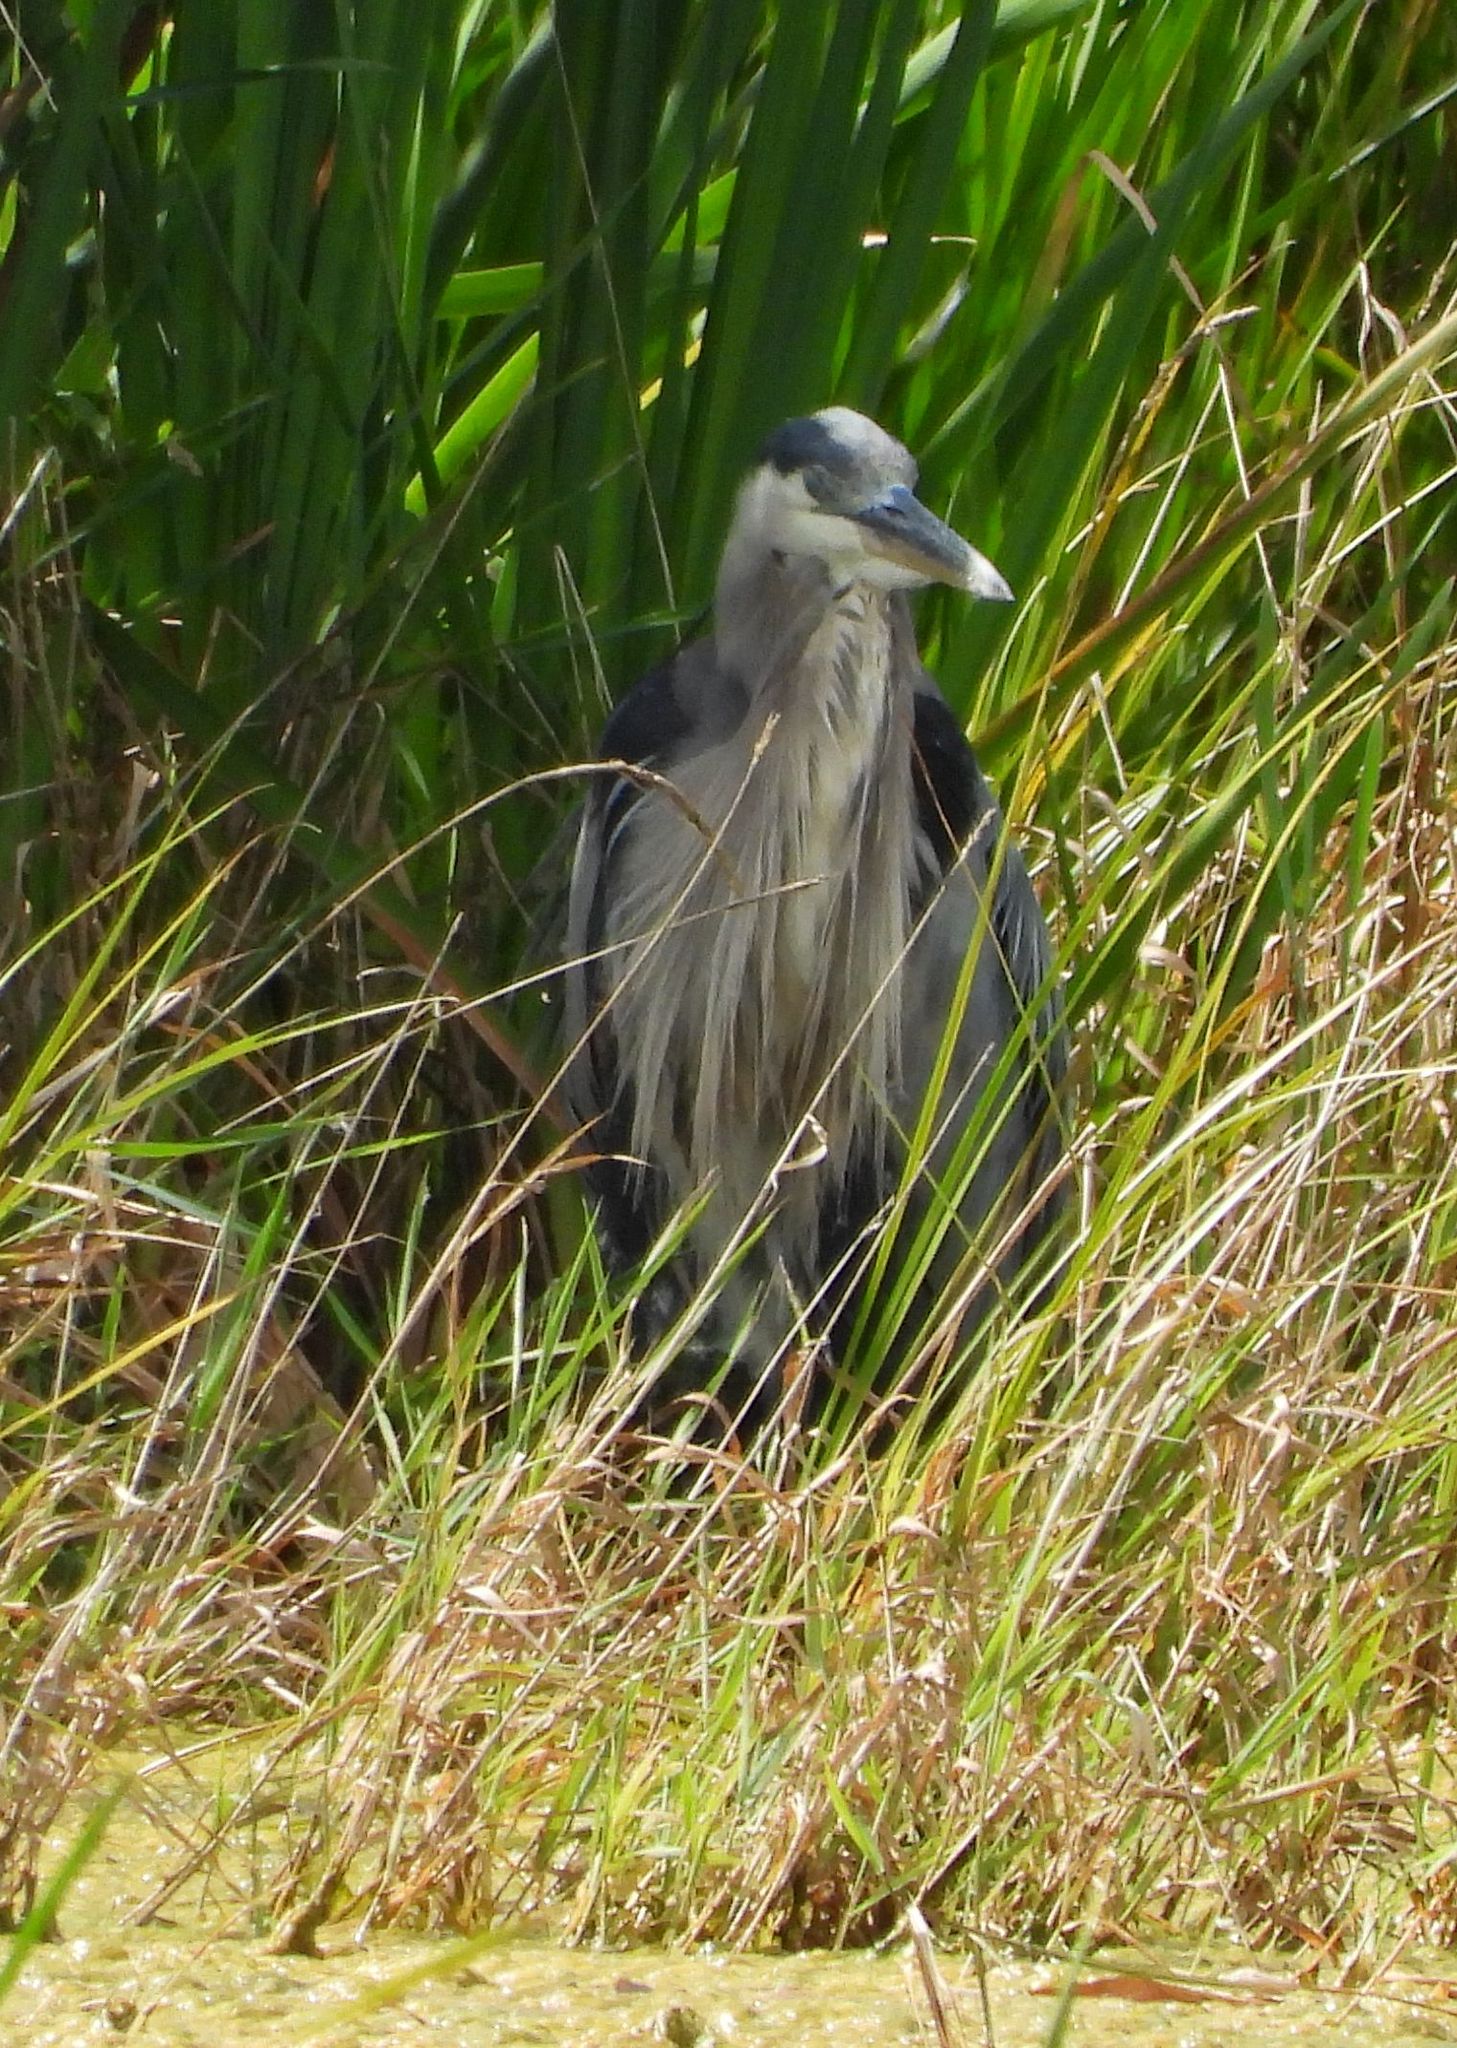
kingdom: Animalia
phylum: Chordata
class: Aves
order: Pelecaniformes
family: Ardeidae
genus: Ardea
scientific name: Ardea herodias
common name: Great blue heron
